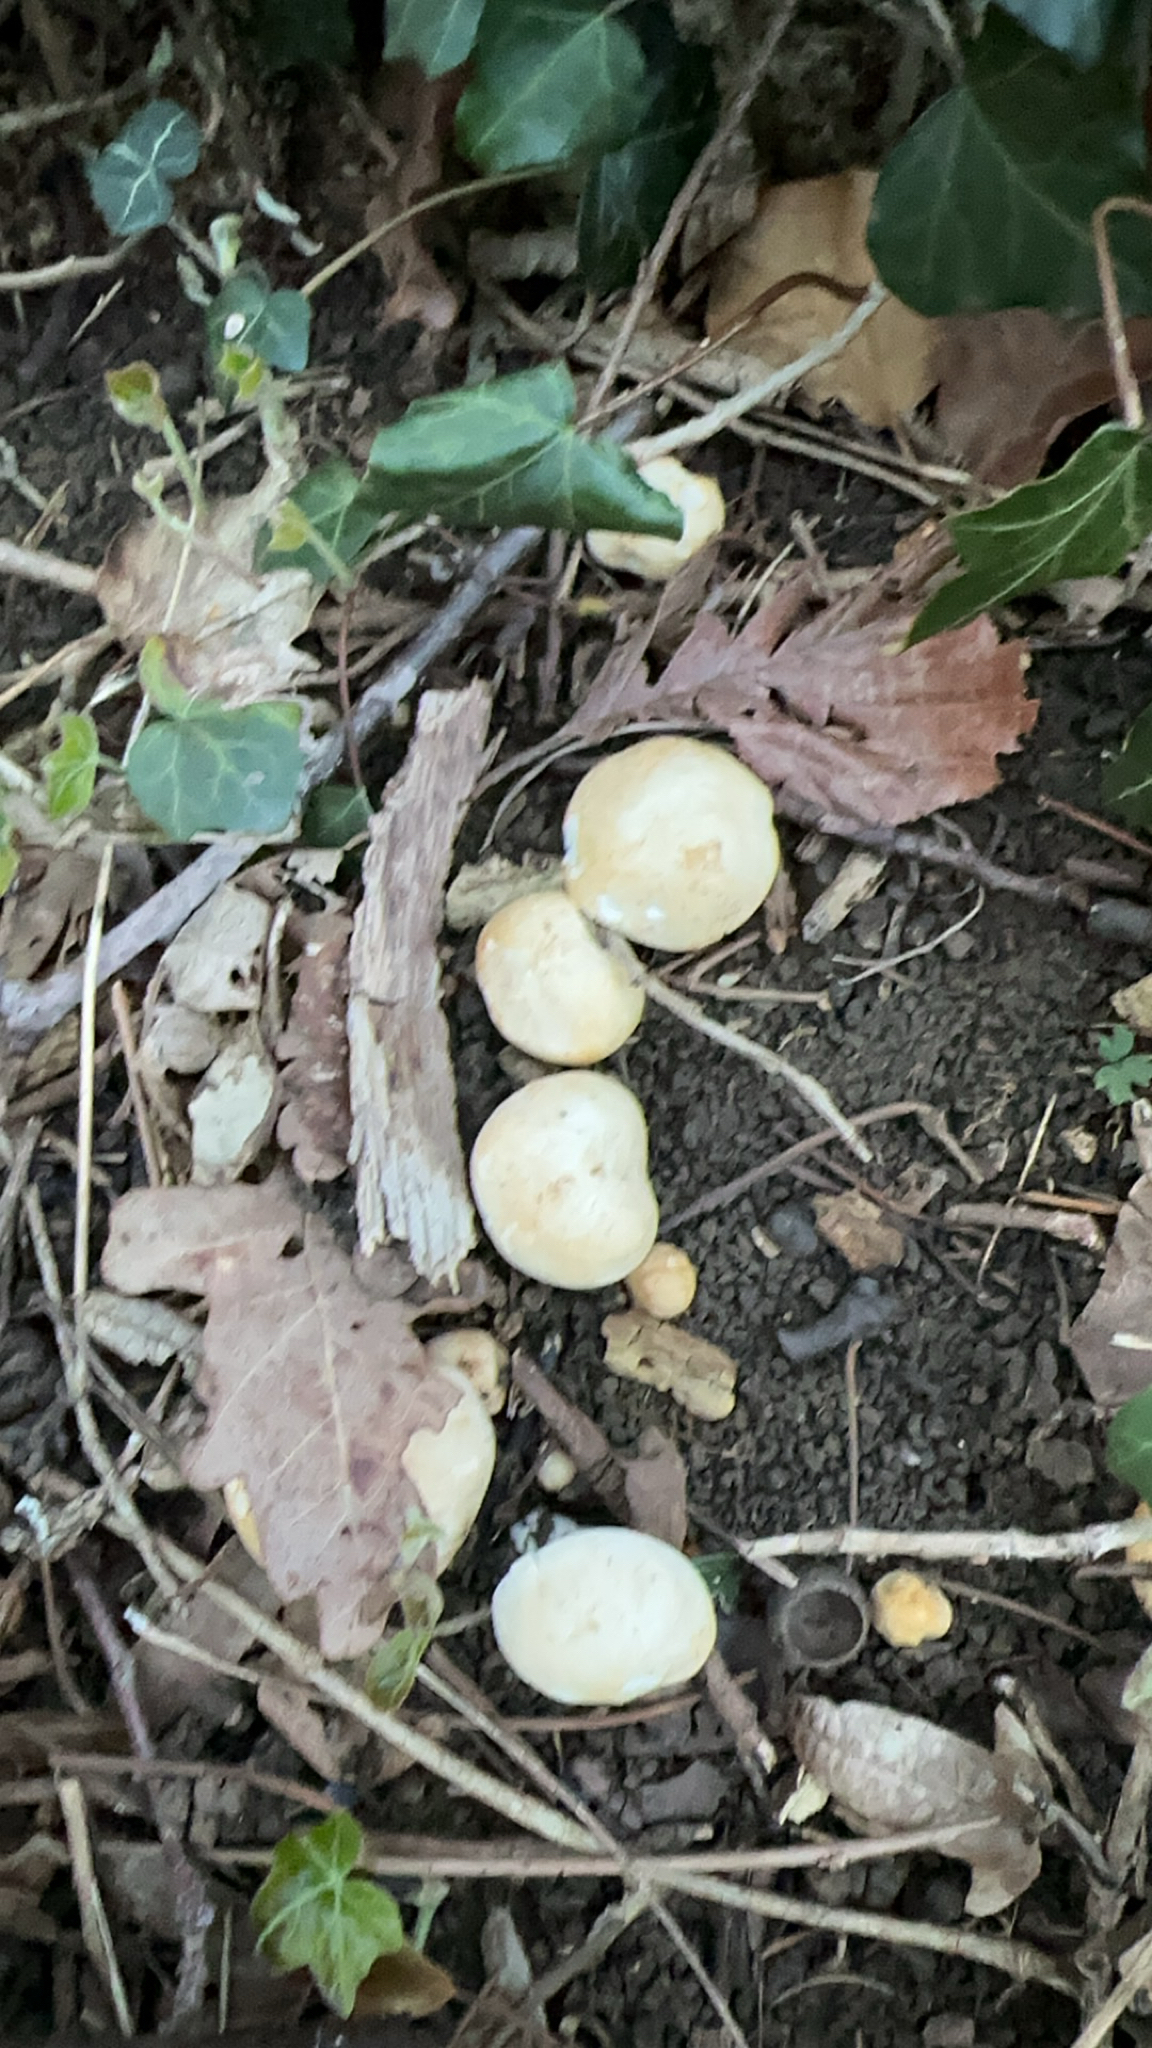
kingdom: Fungi
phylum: Basidiomycota
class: Agaricomycetes
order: Agaricales
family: Lyophyllaceae
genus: Calocybe
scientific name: Calocybe gambosa
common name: St. george's mushroom
